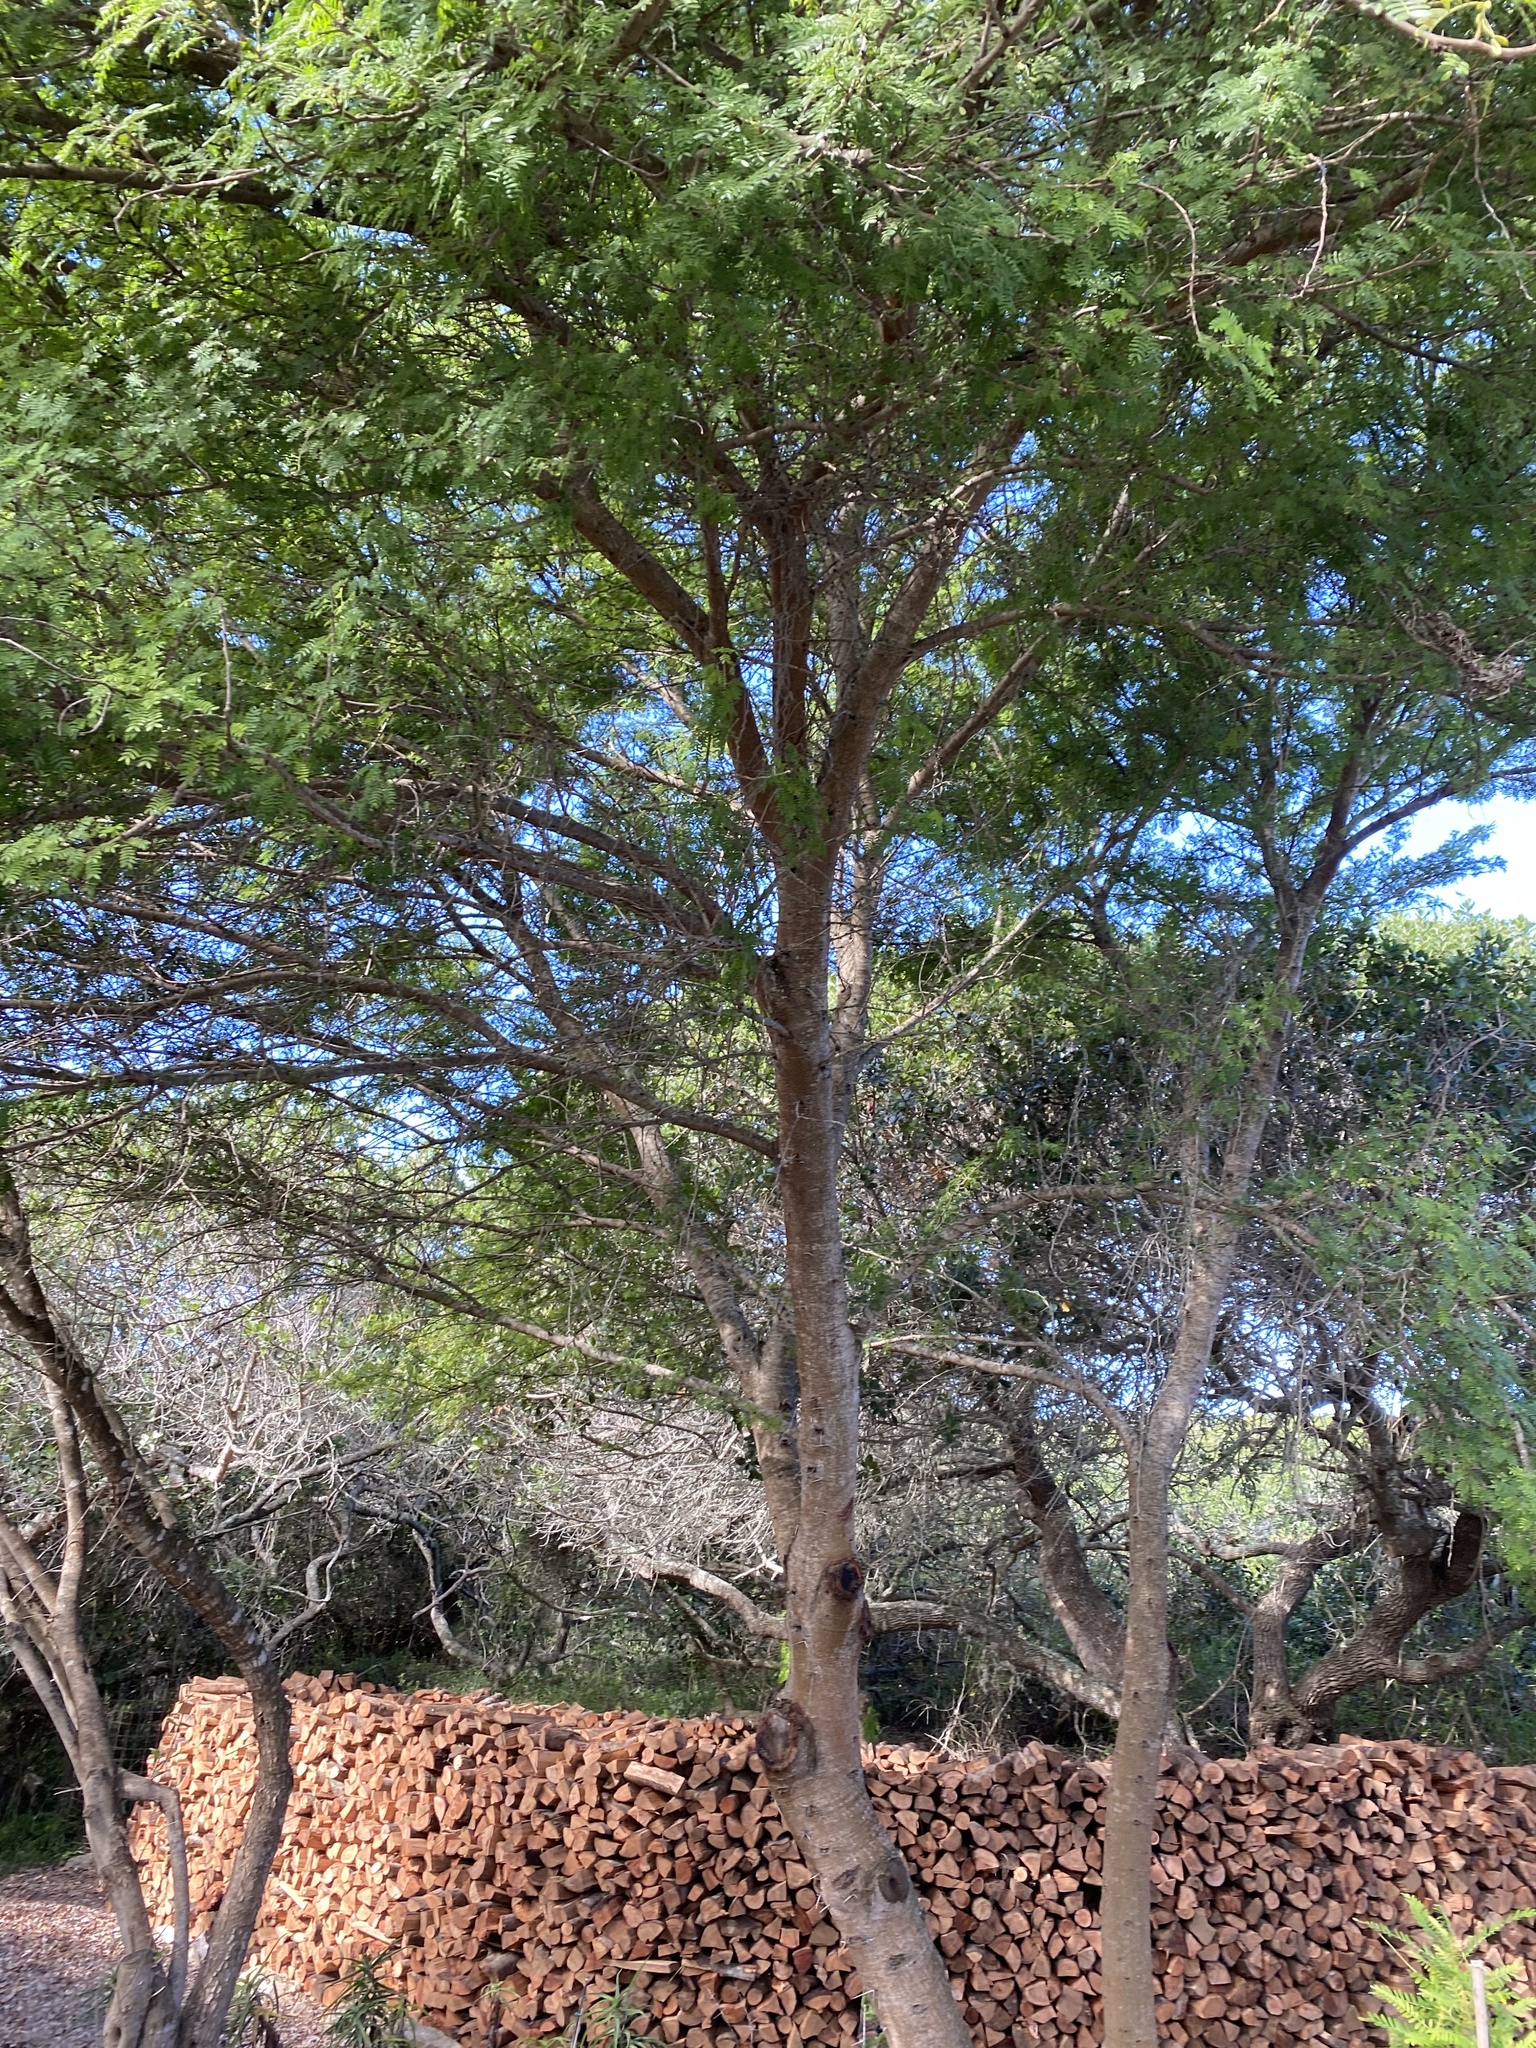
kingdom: Plantae
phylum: Tracheophyta
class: Magnoliopsida
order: Fabales
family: Fabaceae
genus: Vachellia
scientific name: Vachellia karroo
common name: Sweet thorn
